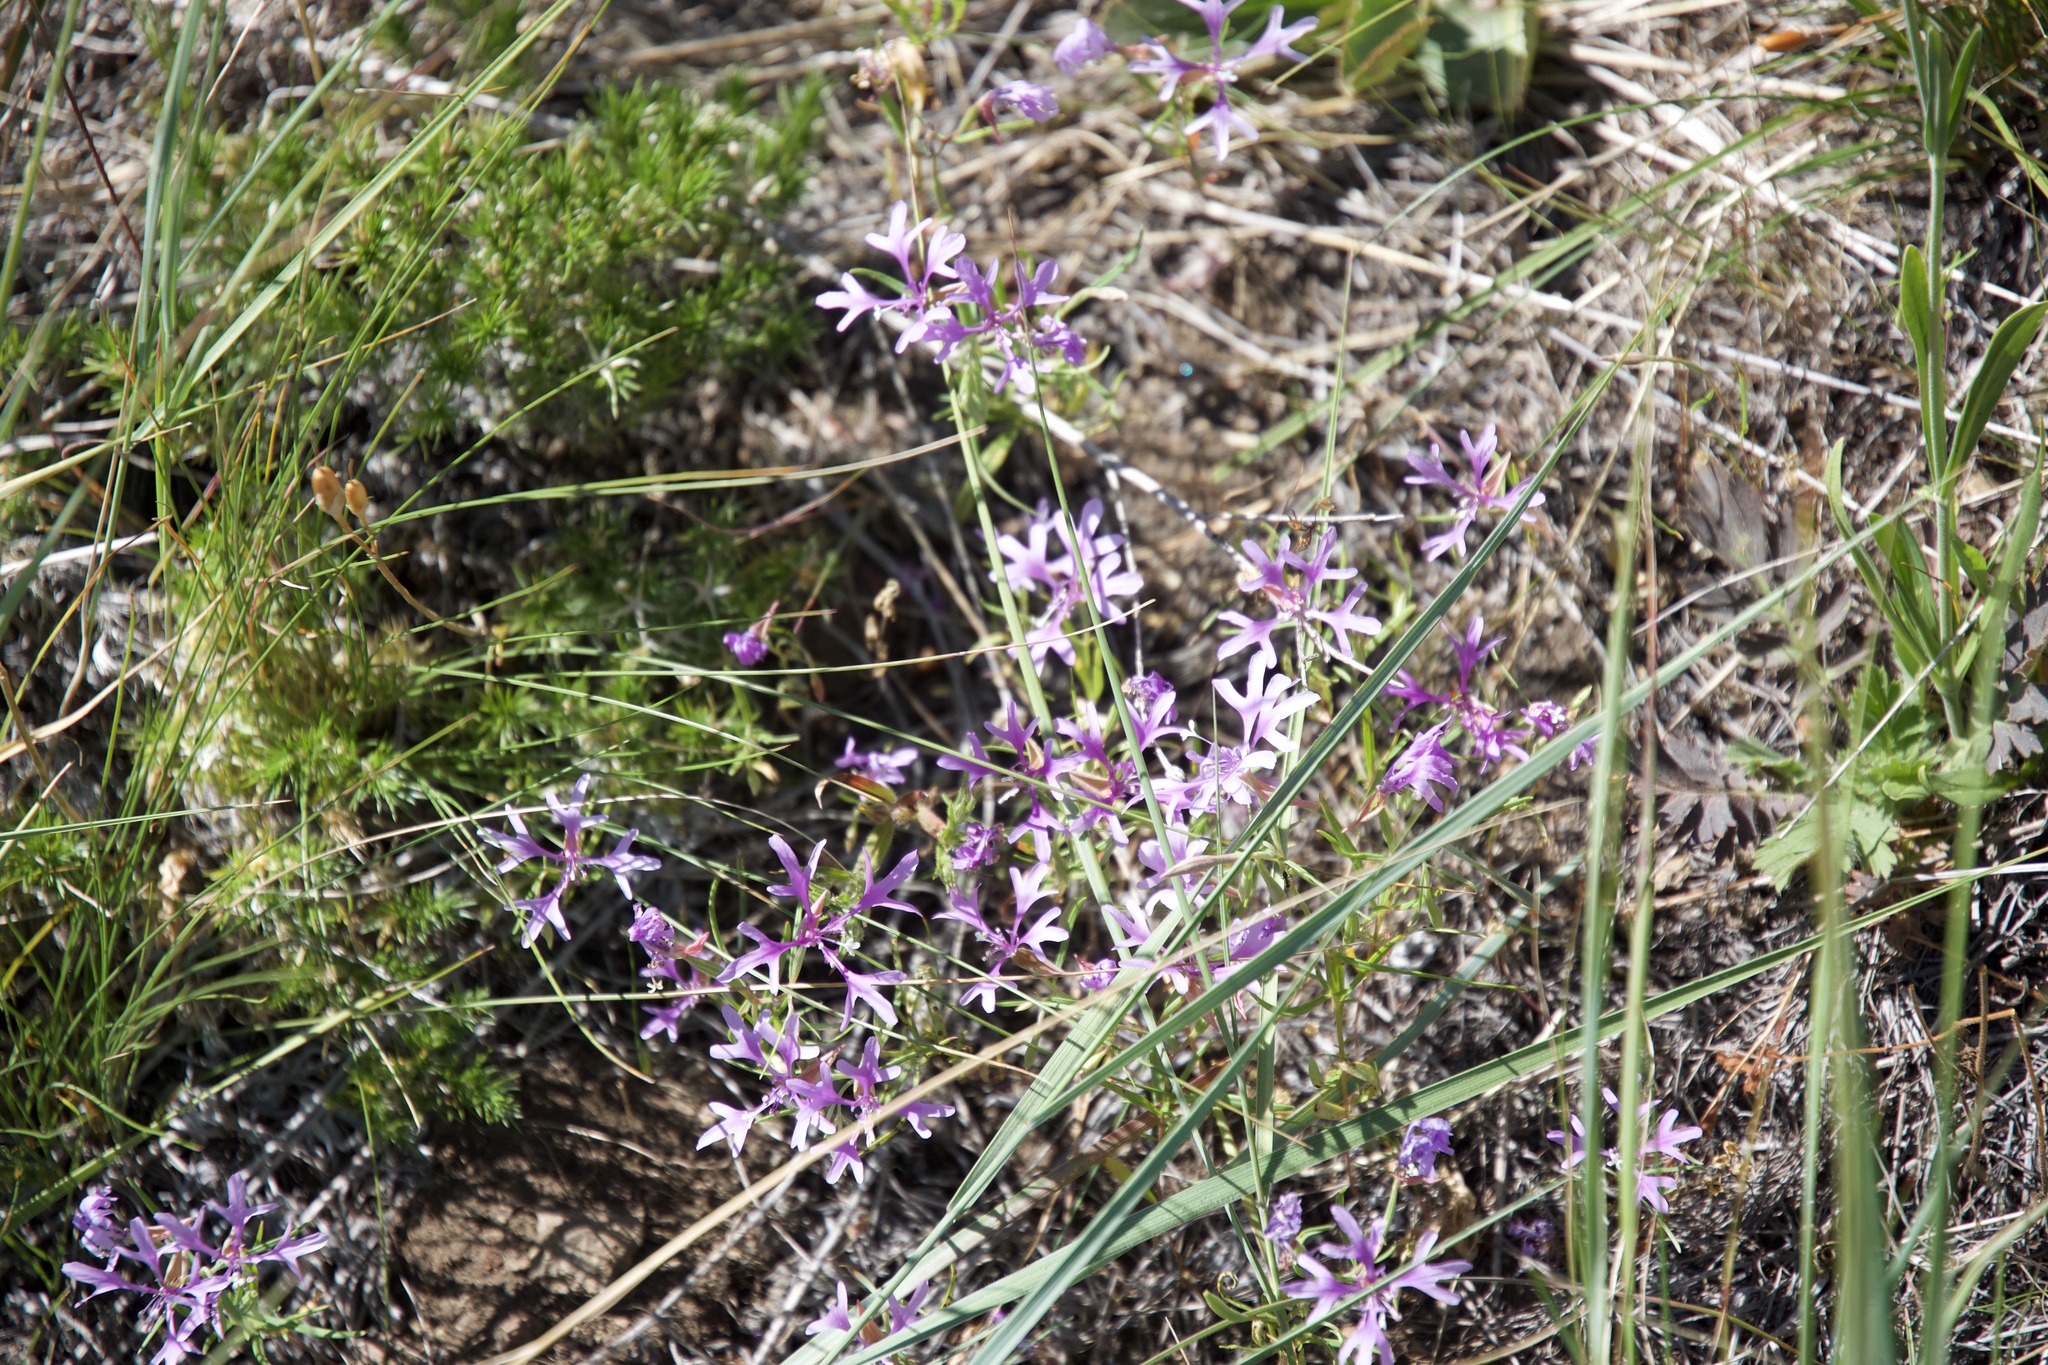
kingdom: Plantae
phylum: Tracheophyta
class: Magnoliopsida
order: Myrtales
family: Onagraceae
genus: Clarkia
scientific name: Clarkia pulchella
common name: Deer horn
